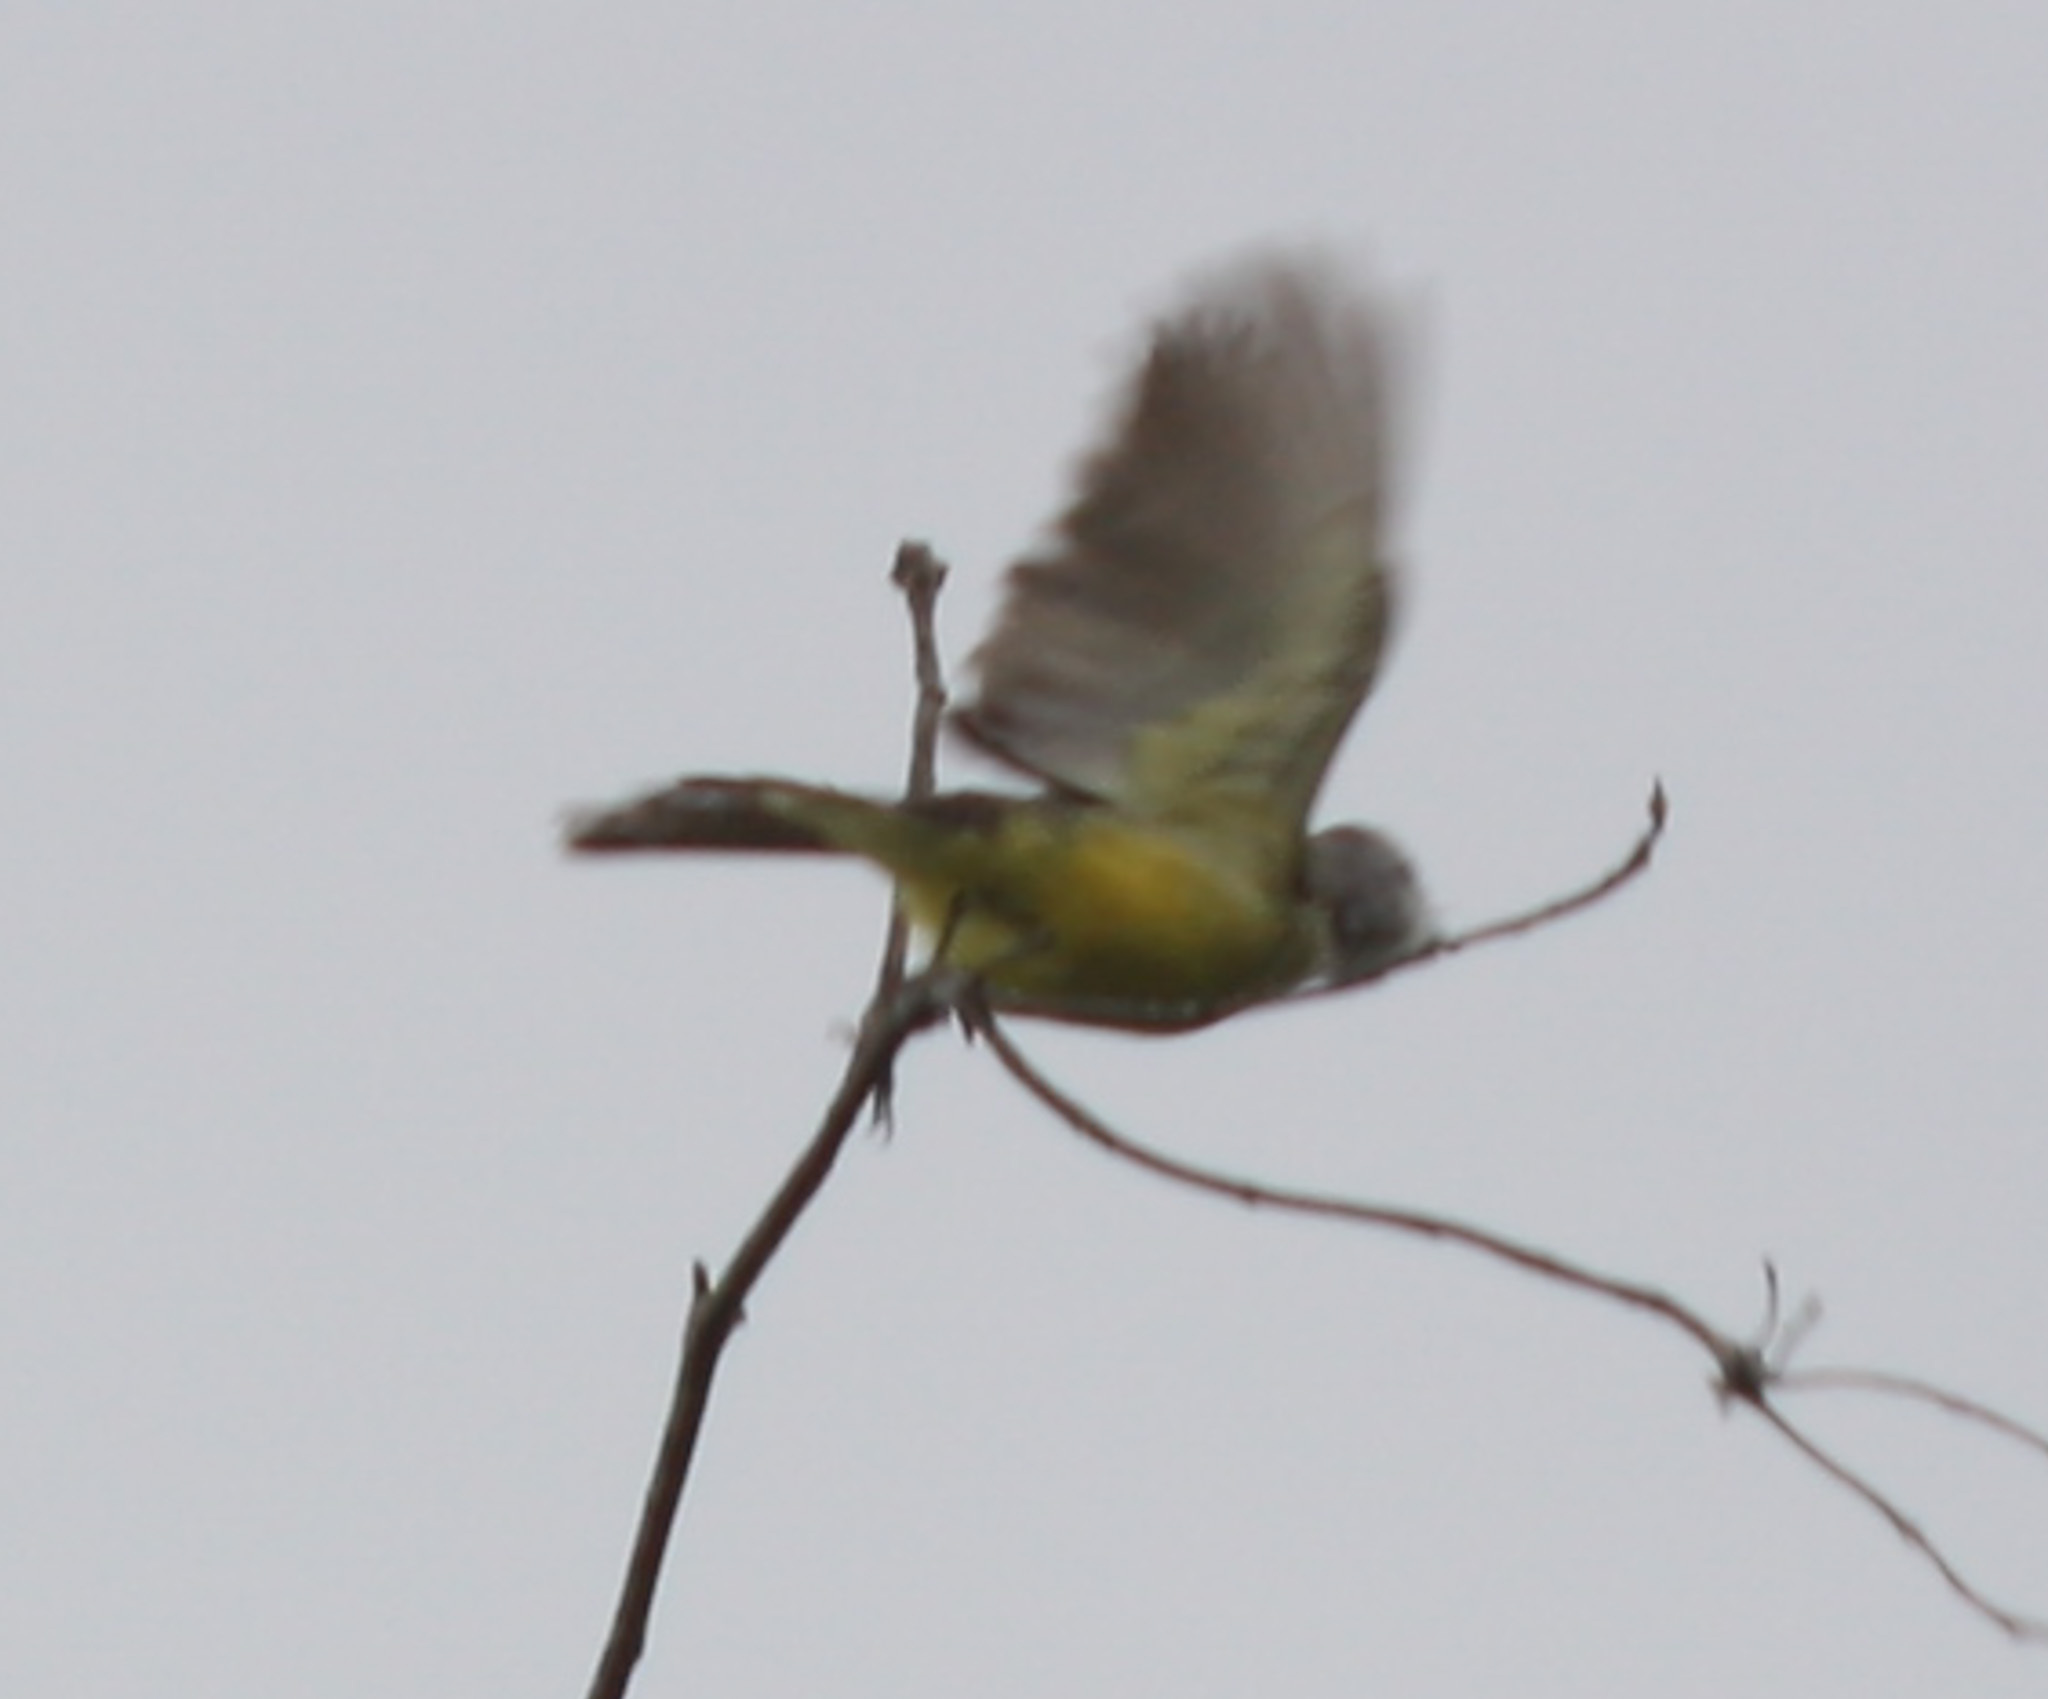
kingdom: Animalia
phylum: Chordata
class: Aves
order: Passeriformes
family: Tyrannidae
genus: Tyrannus
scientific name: Tyrannus melancholicus
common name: Tropical kingbird
